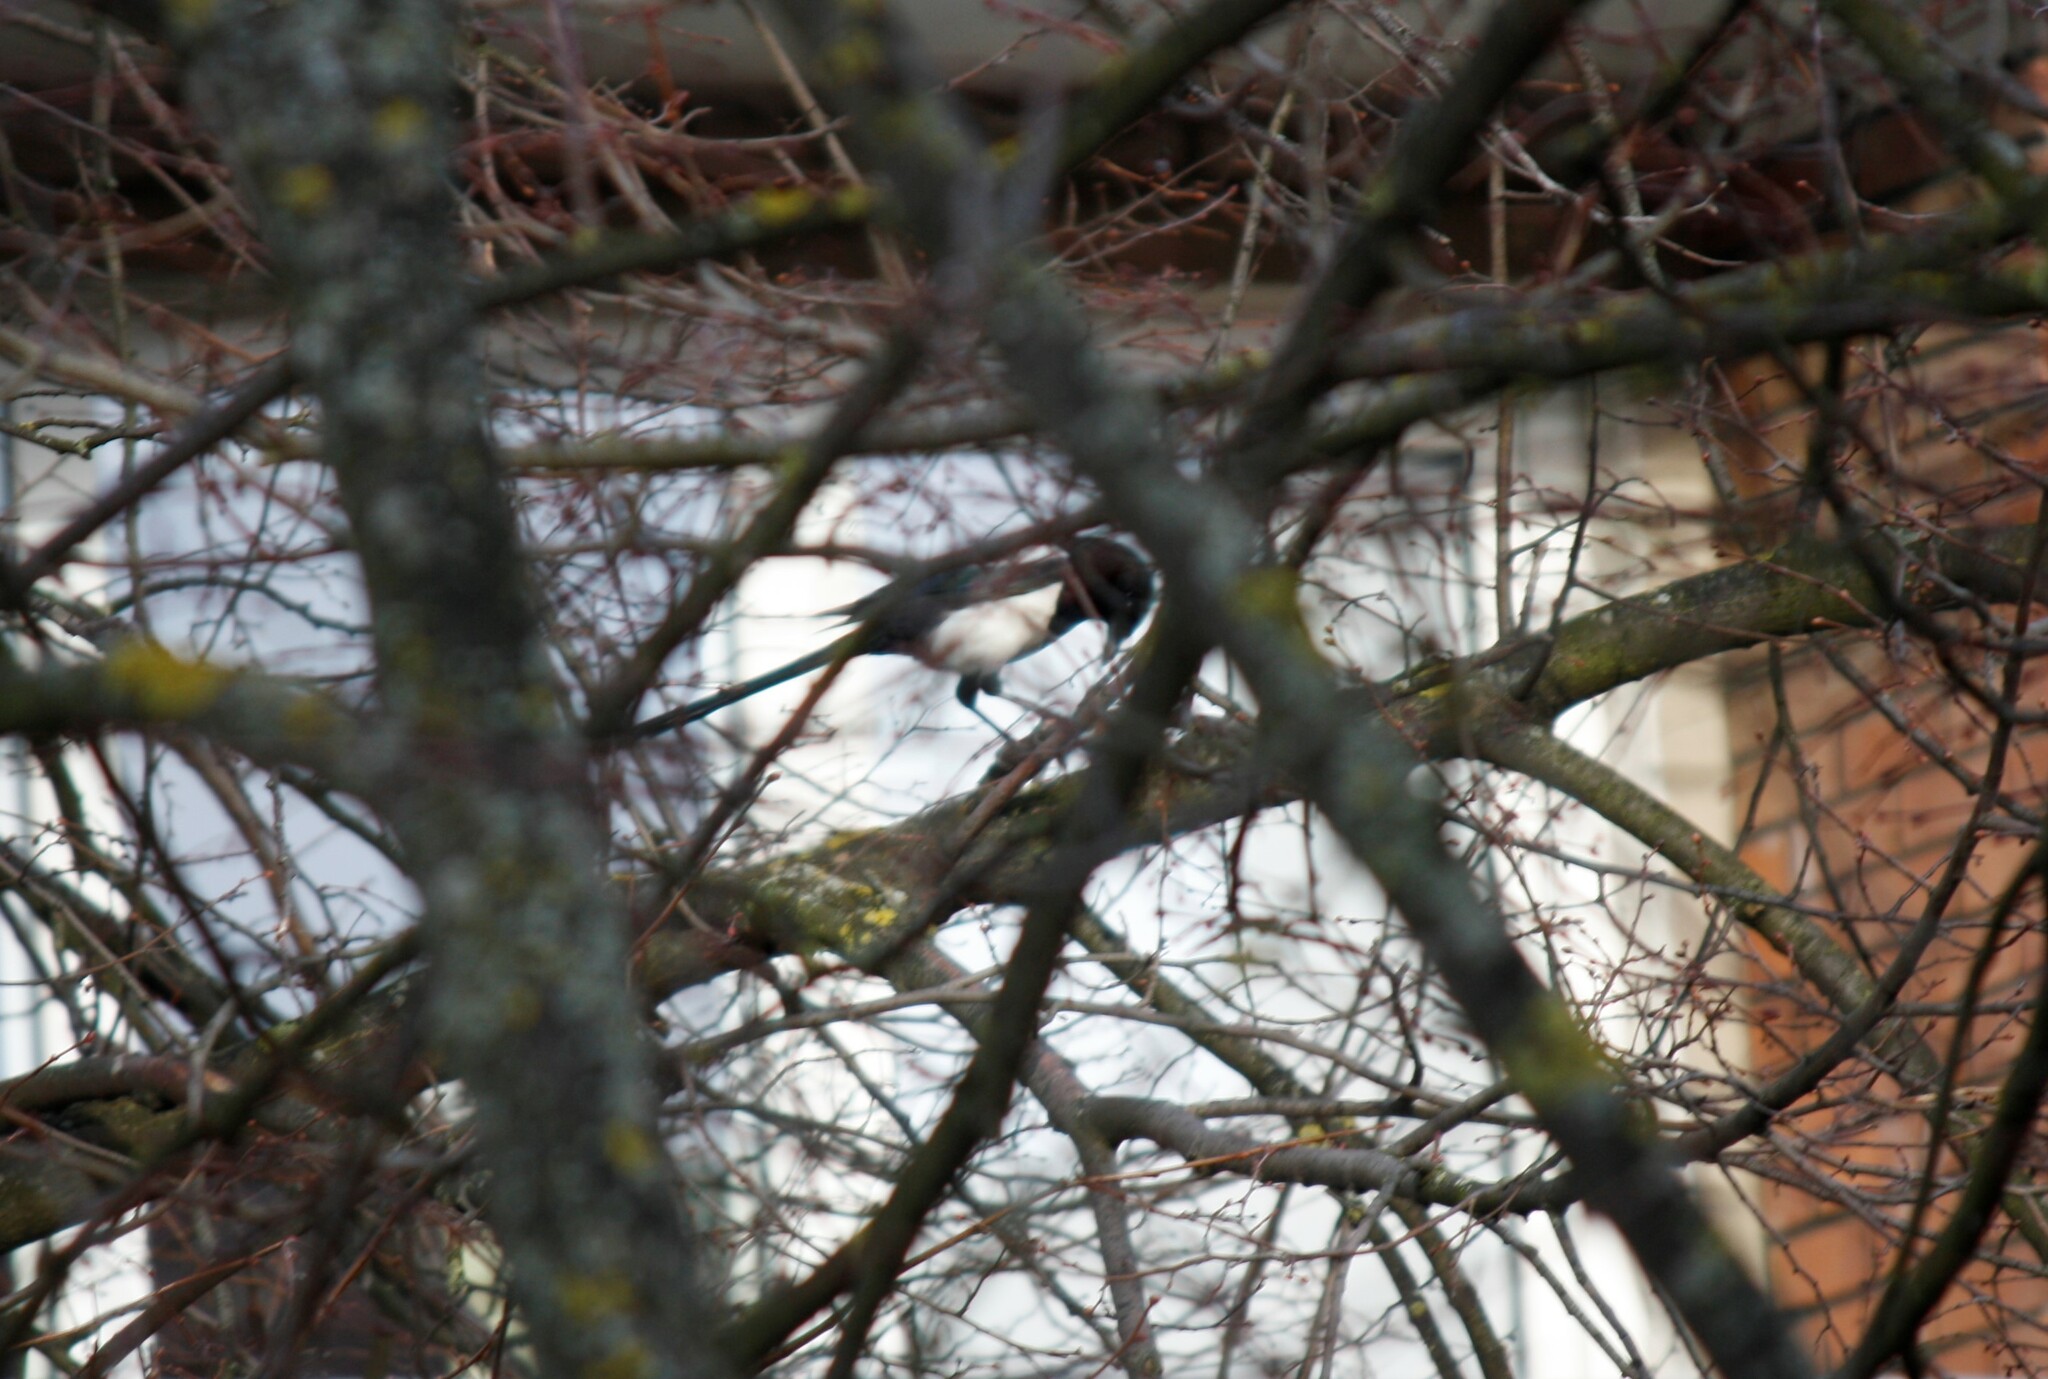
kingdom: Animalia
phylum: Chordata
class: Aves
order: Passeriformes
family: Corvidae
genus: Pica
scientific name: Pica pica
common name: Eurasian magpie
